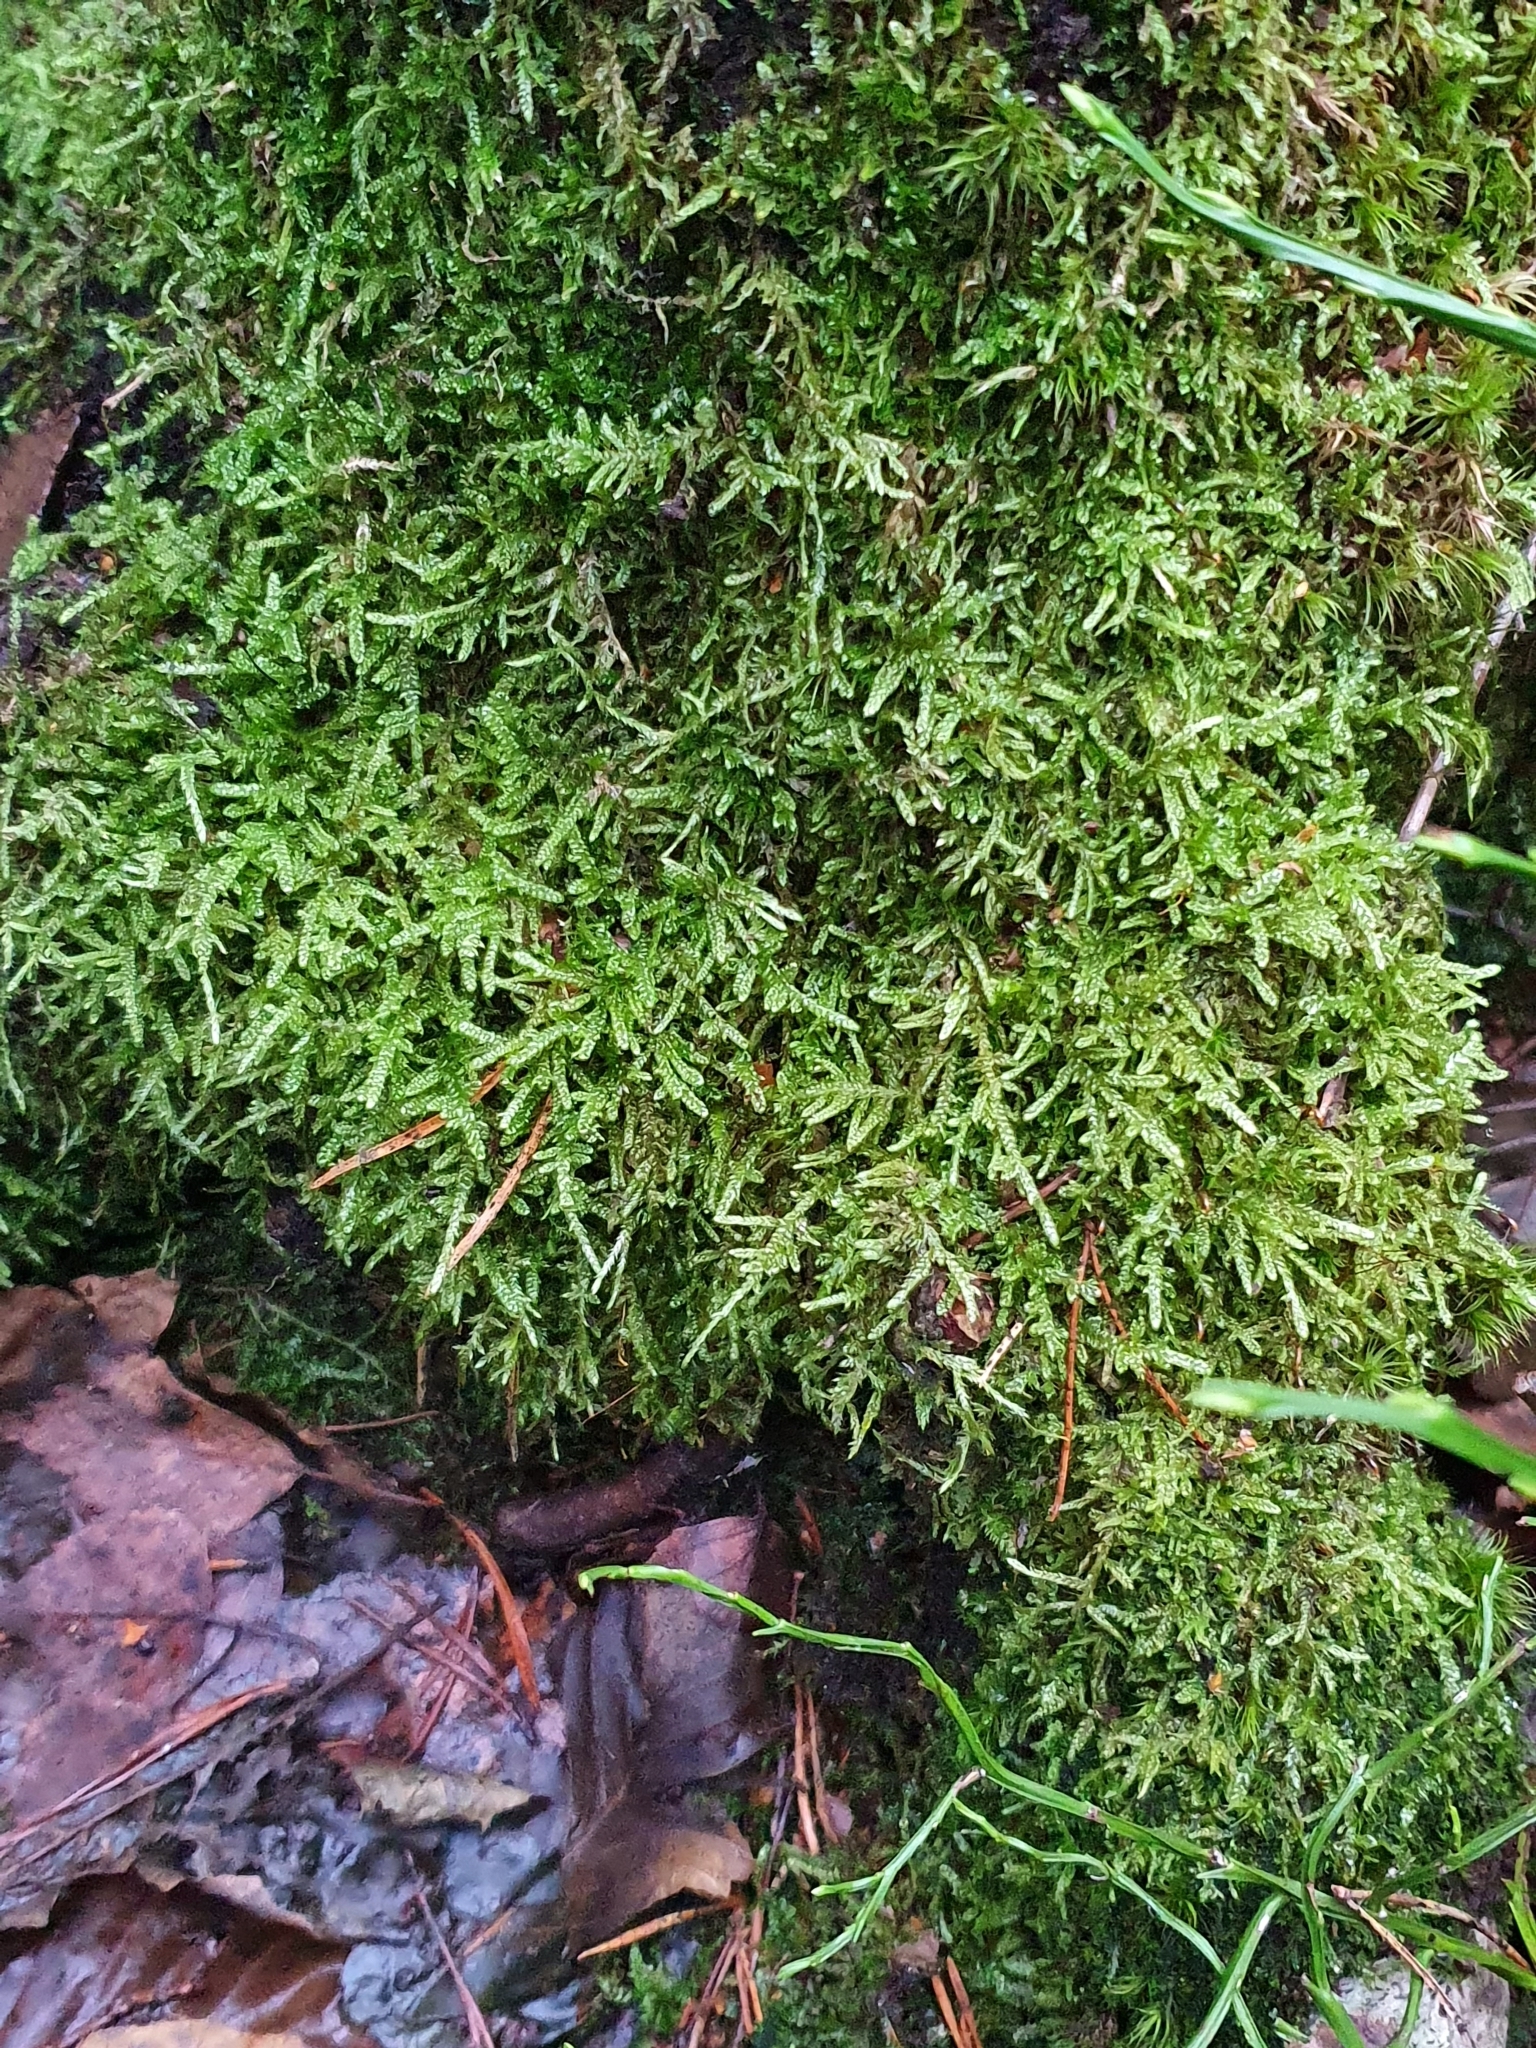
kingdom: Plantae
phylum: Bryophyta
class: Bryopsida
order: Hypnales
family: Hypnaceae
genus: Hypnum
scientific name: Hypnum cupressiforme
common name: Cypress-leaved plait-moss
